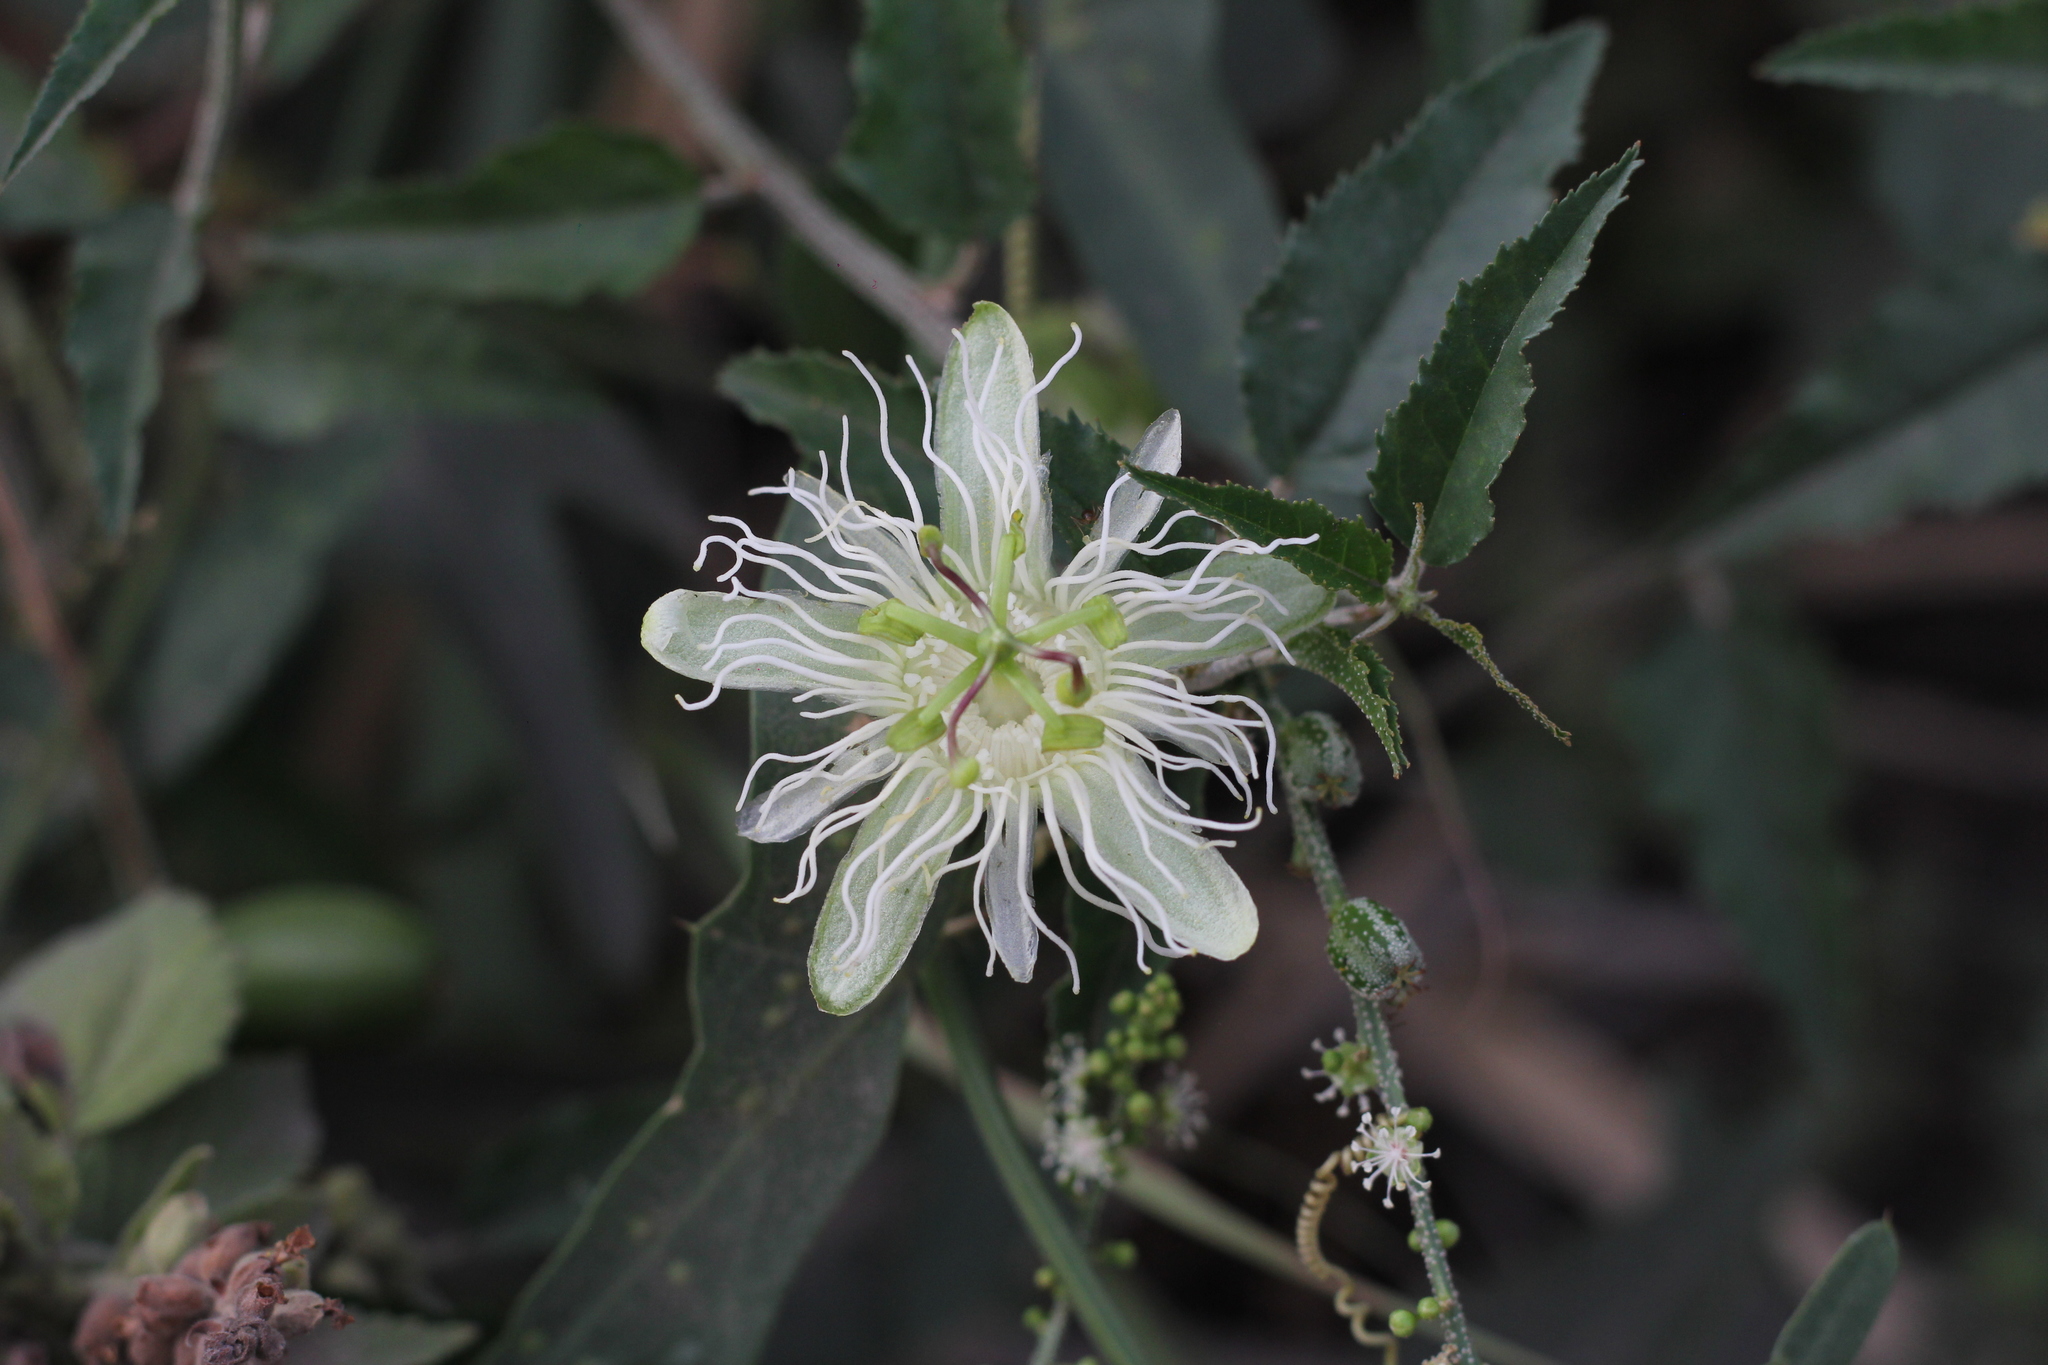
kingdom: Plantae
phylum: Tracheophyta
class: Magnoliopsida
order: Malpighiales
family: Passifloraceae
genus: Passiflora
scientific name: Passiflora misera
